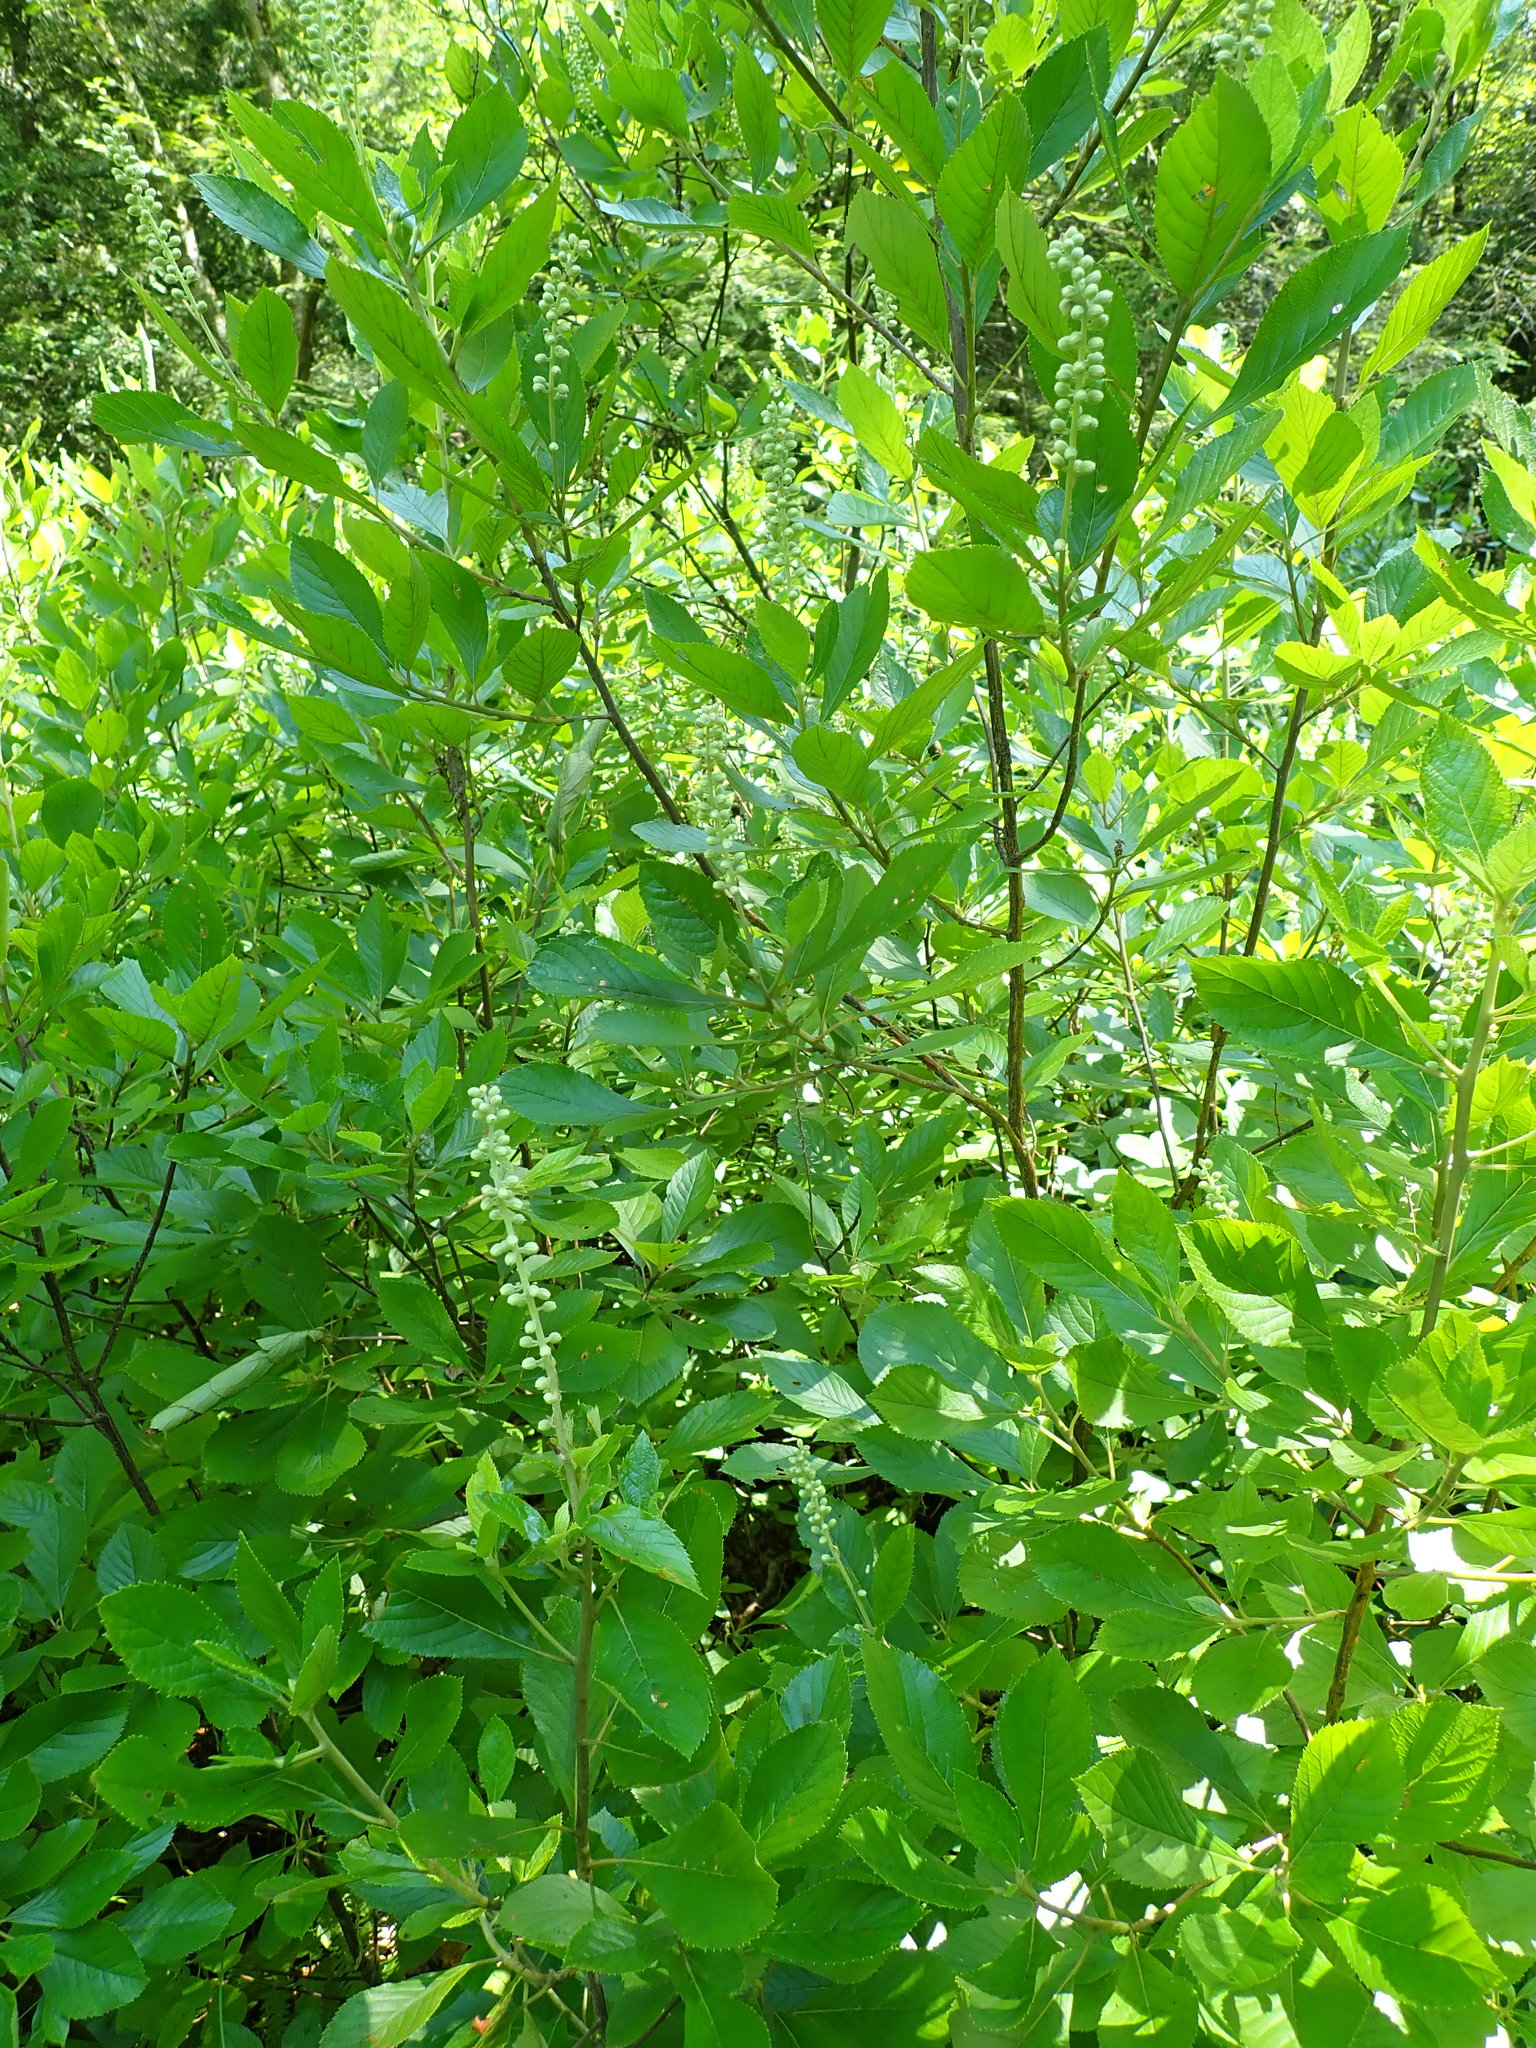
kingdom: Plantae
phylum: Tracheophyta
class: Magnoliopsida
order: Ericales
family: Clethraceae
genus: Clethra
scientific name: Clethra alnifolia
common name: Sweet pepperbush
